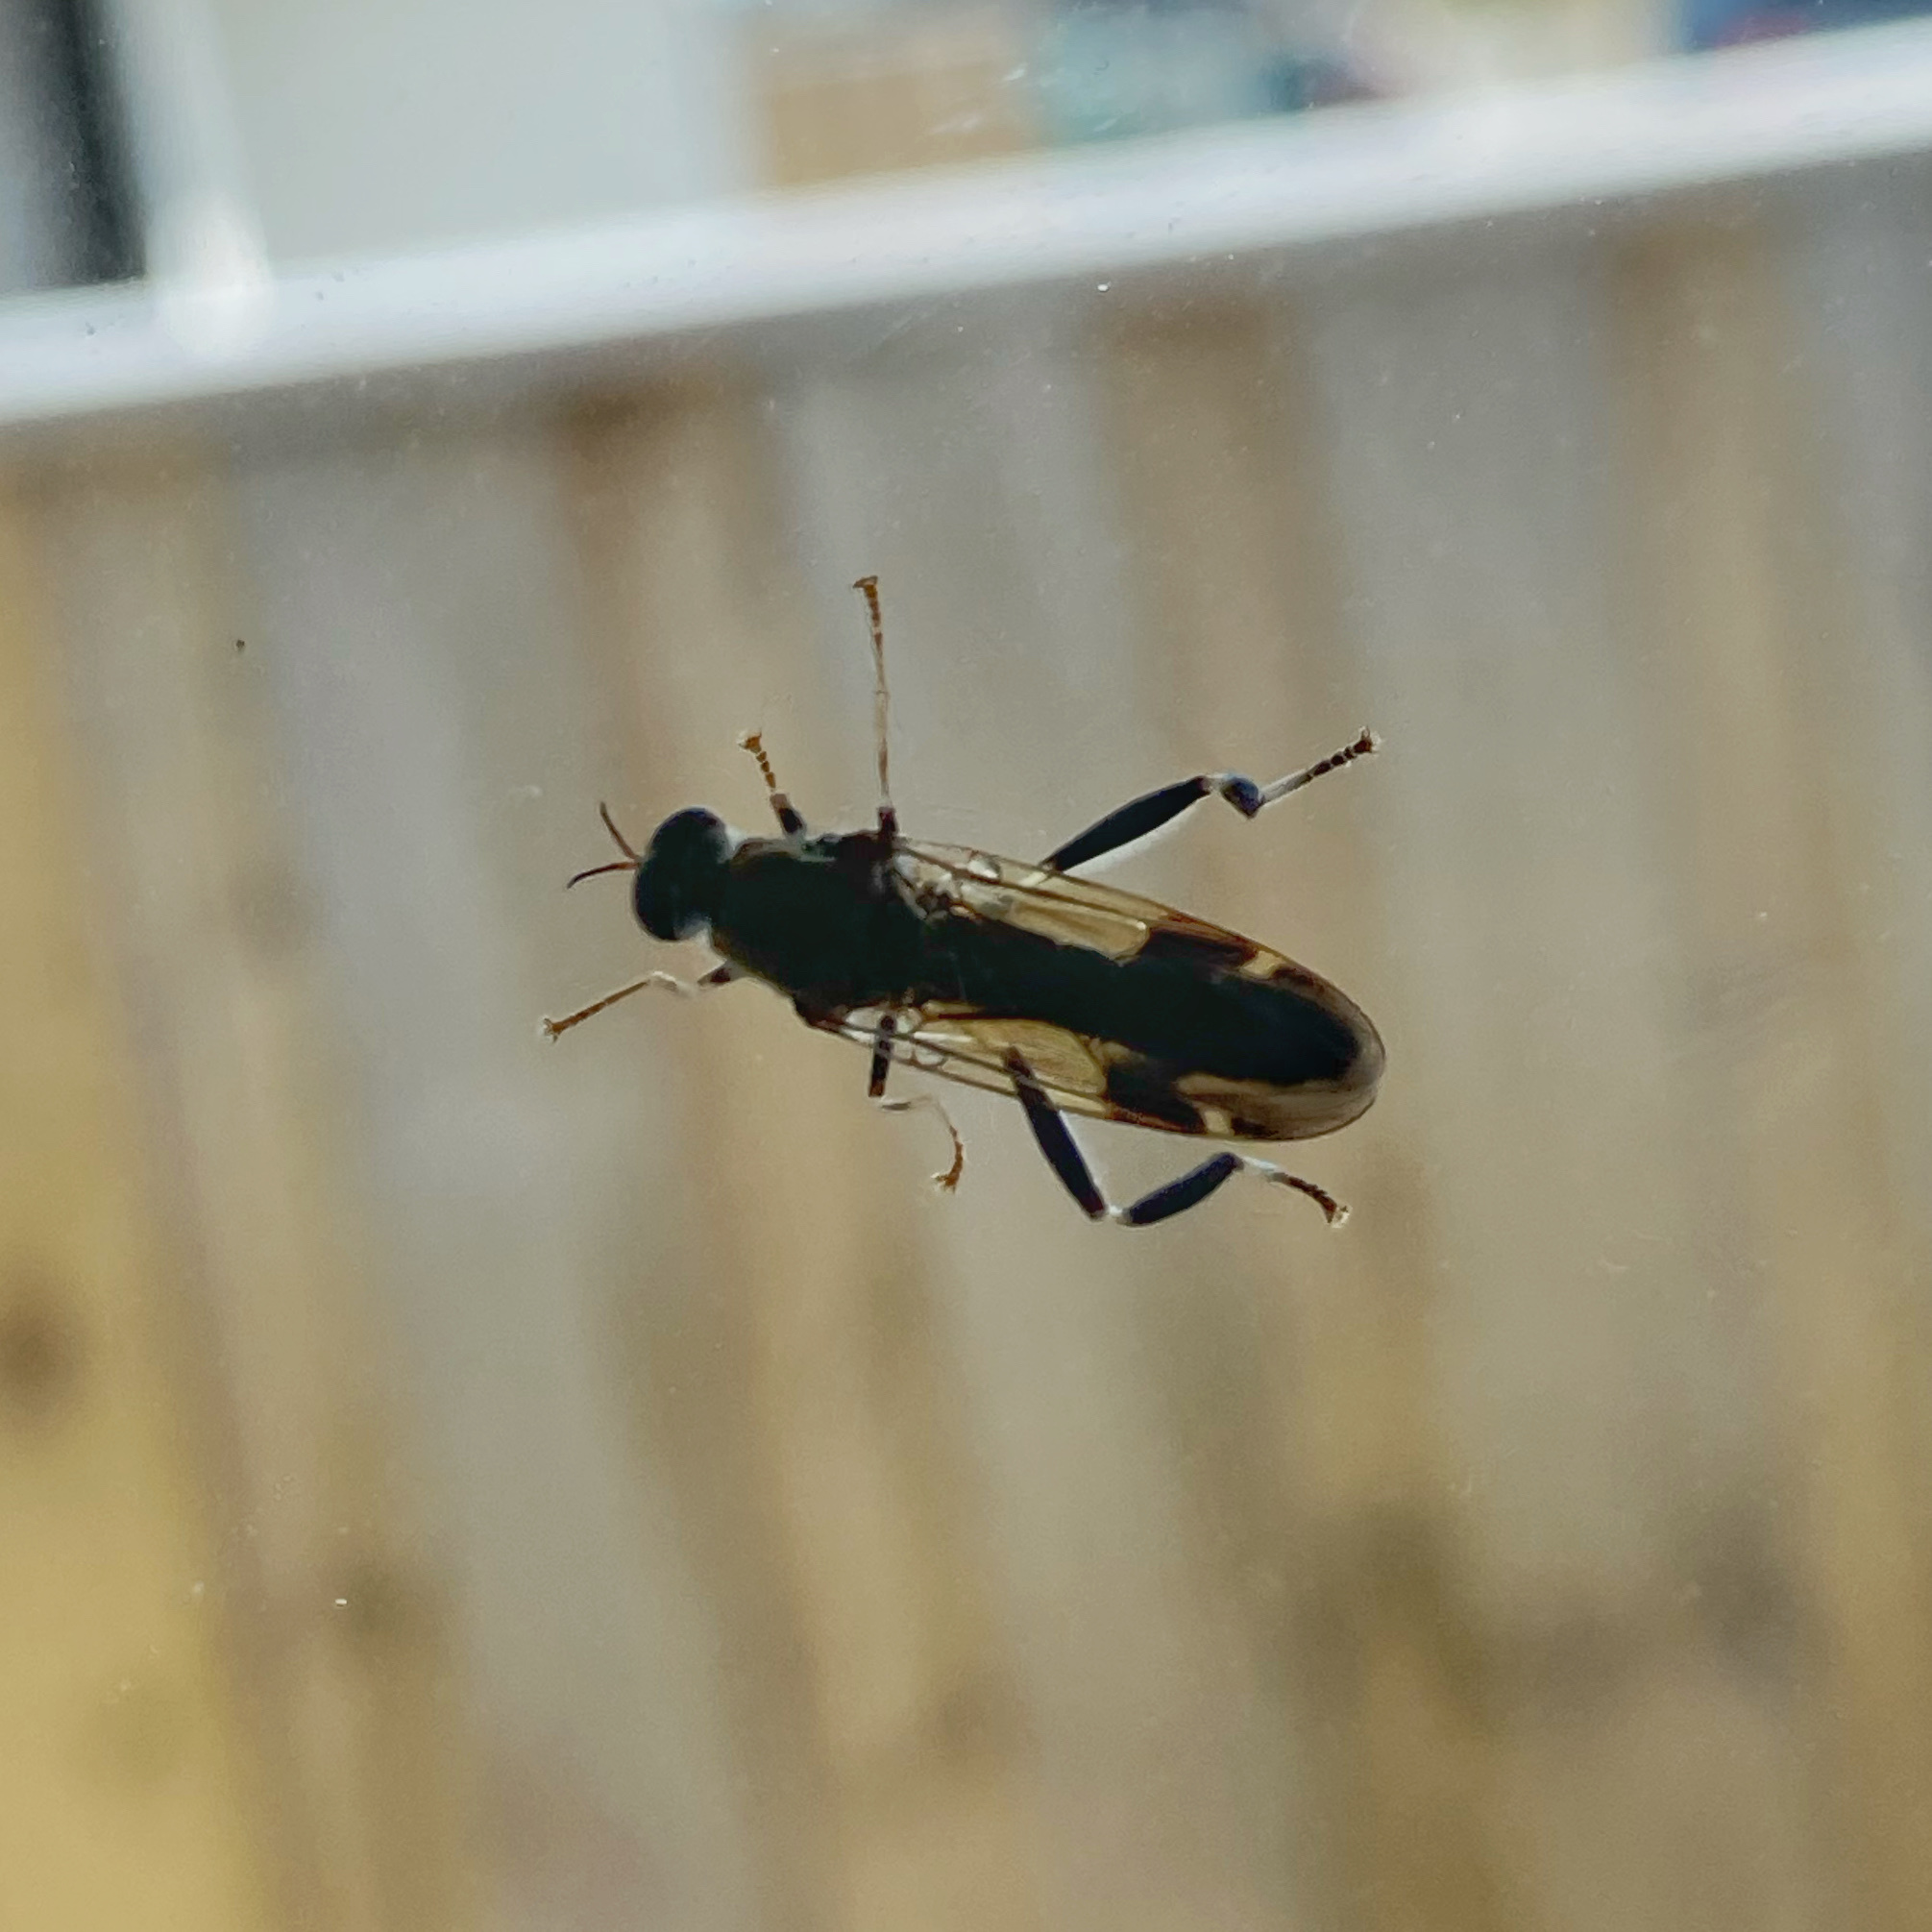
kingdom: Animalia
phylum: Arthropoda
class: Insecta
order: Diptera
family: Stratiomyidae
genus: Exaireta
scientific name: Exaireta spinigera
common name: Blue soldier fly
